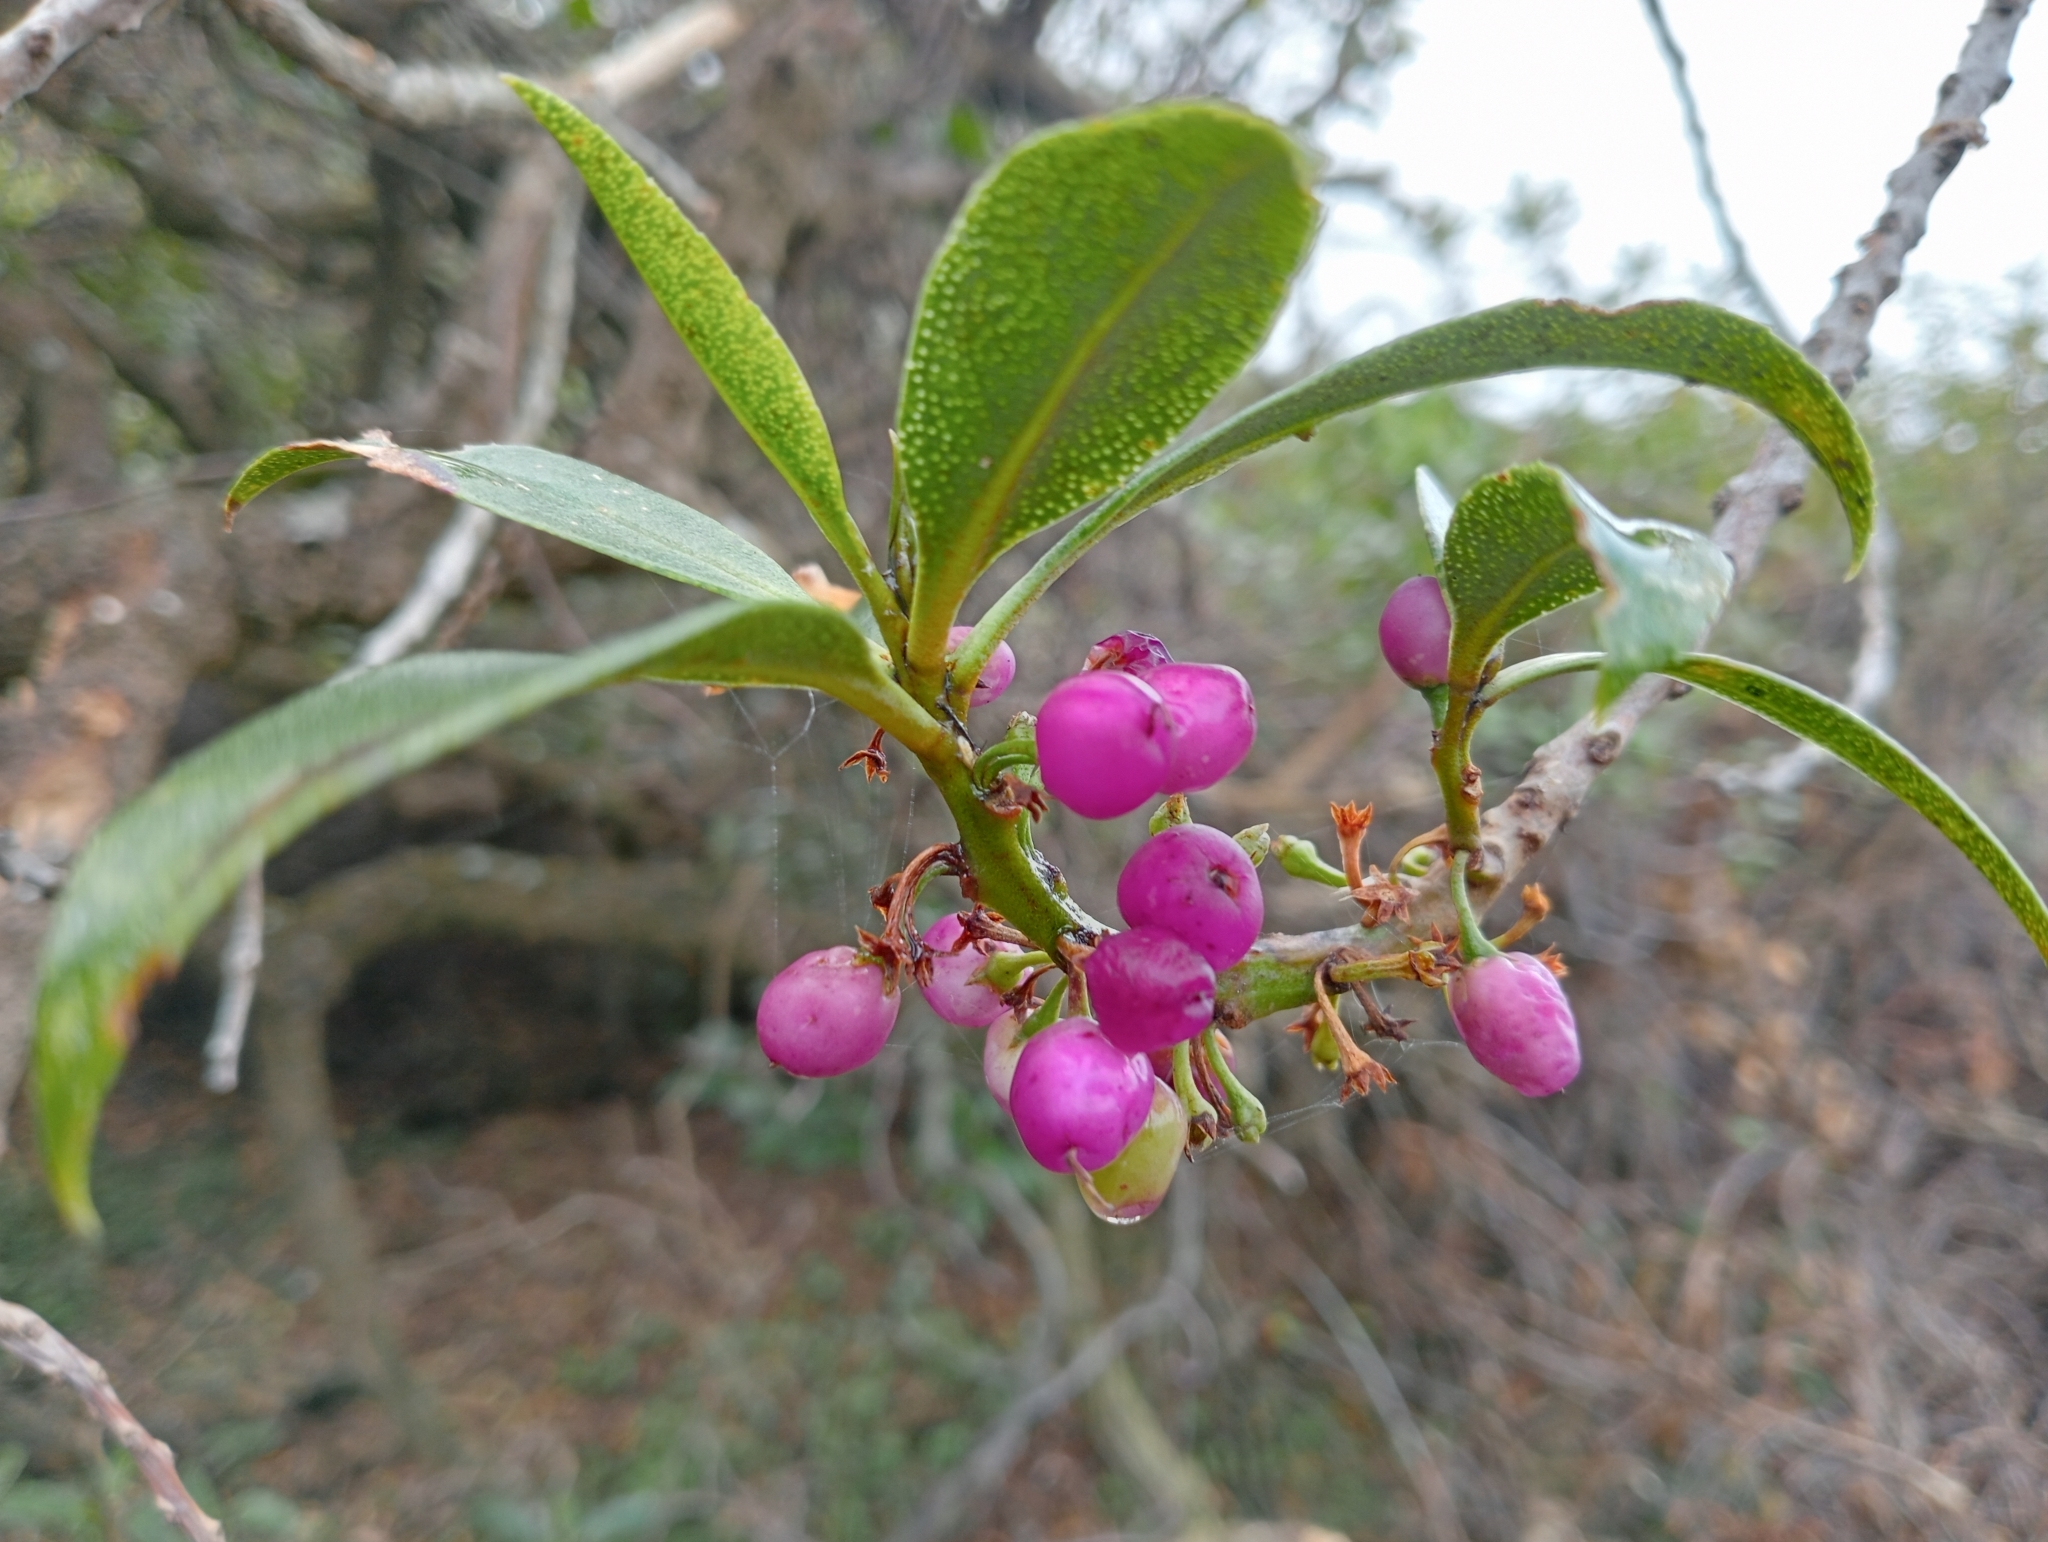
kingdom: Plantae
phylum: Tracheophyta
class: Magnoliopsida
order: Lamiales
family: Scrophulariaceae
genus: Myoporum
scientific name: Myoporum laetum
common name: Ngaio tree
